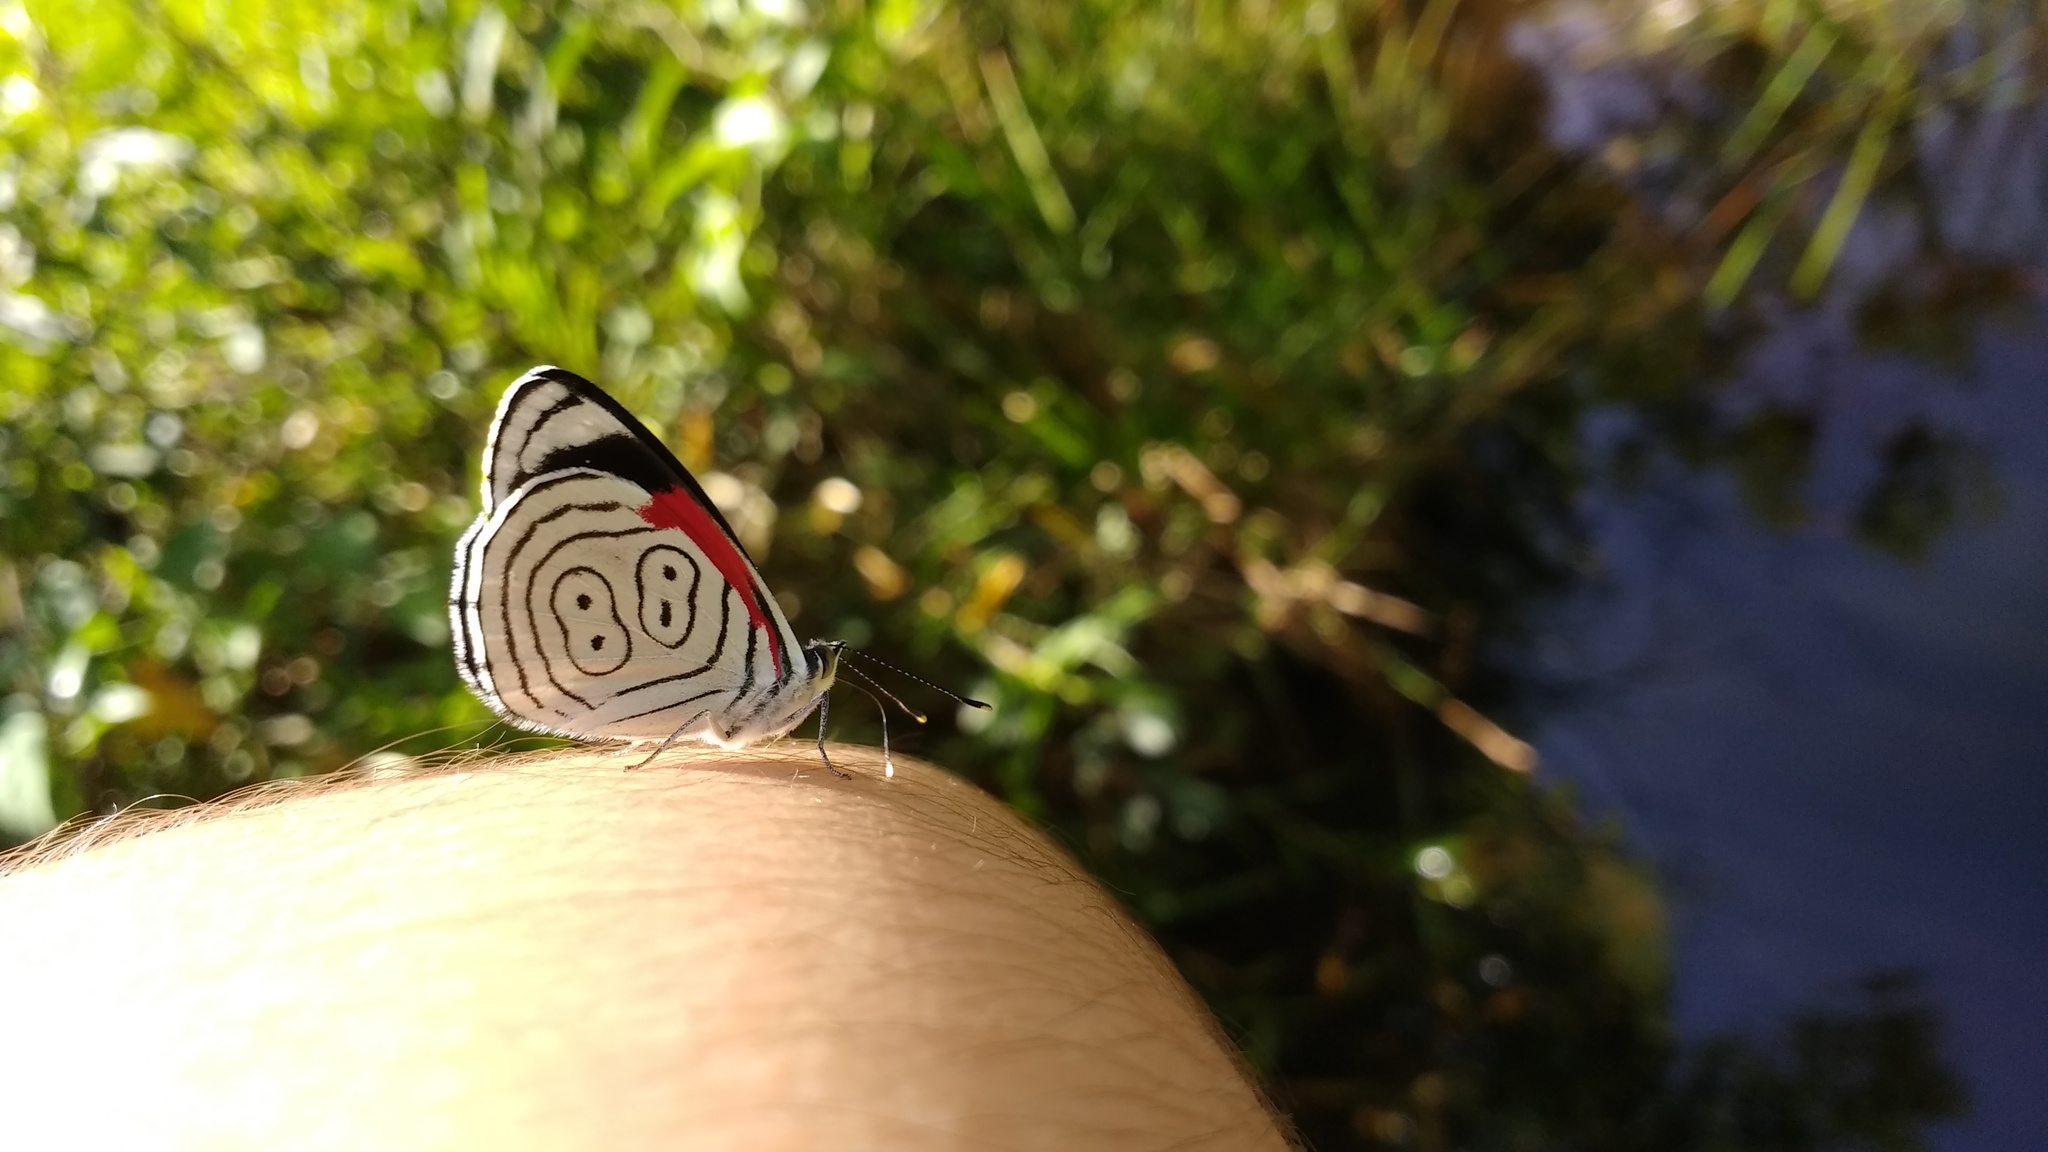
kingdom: Animalia
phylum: Arthropoda
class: Insecta
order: Lepidoptera
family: Nymphalidae
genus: Diaethria
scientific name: Diaethria anna
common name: Anna’s eighty-eight
